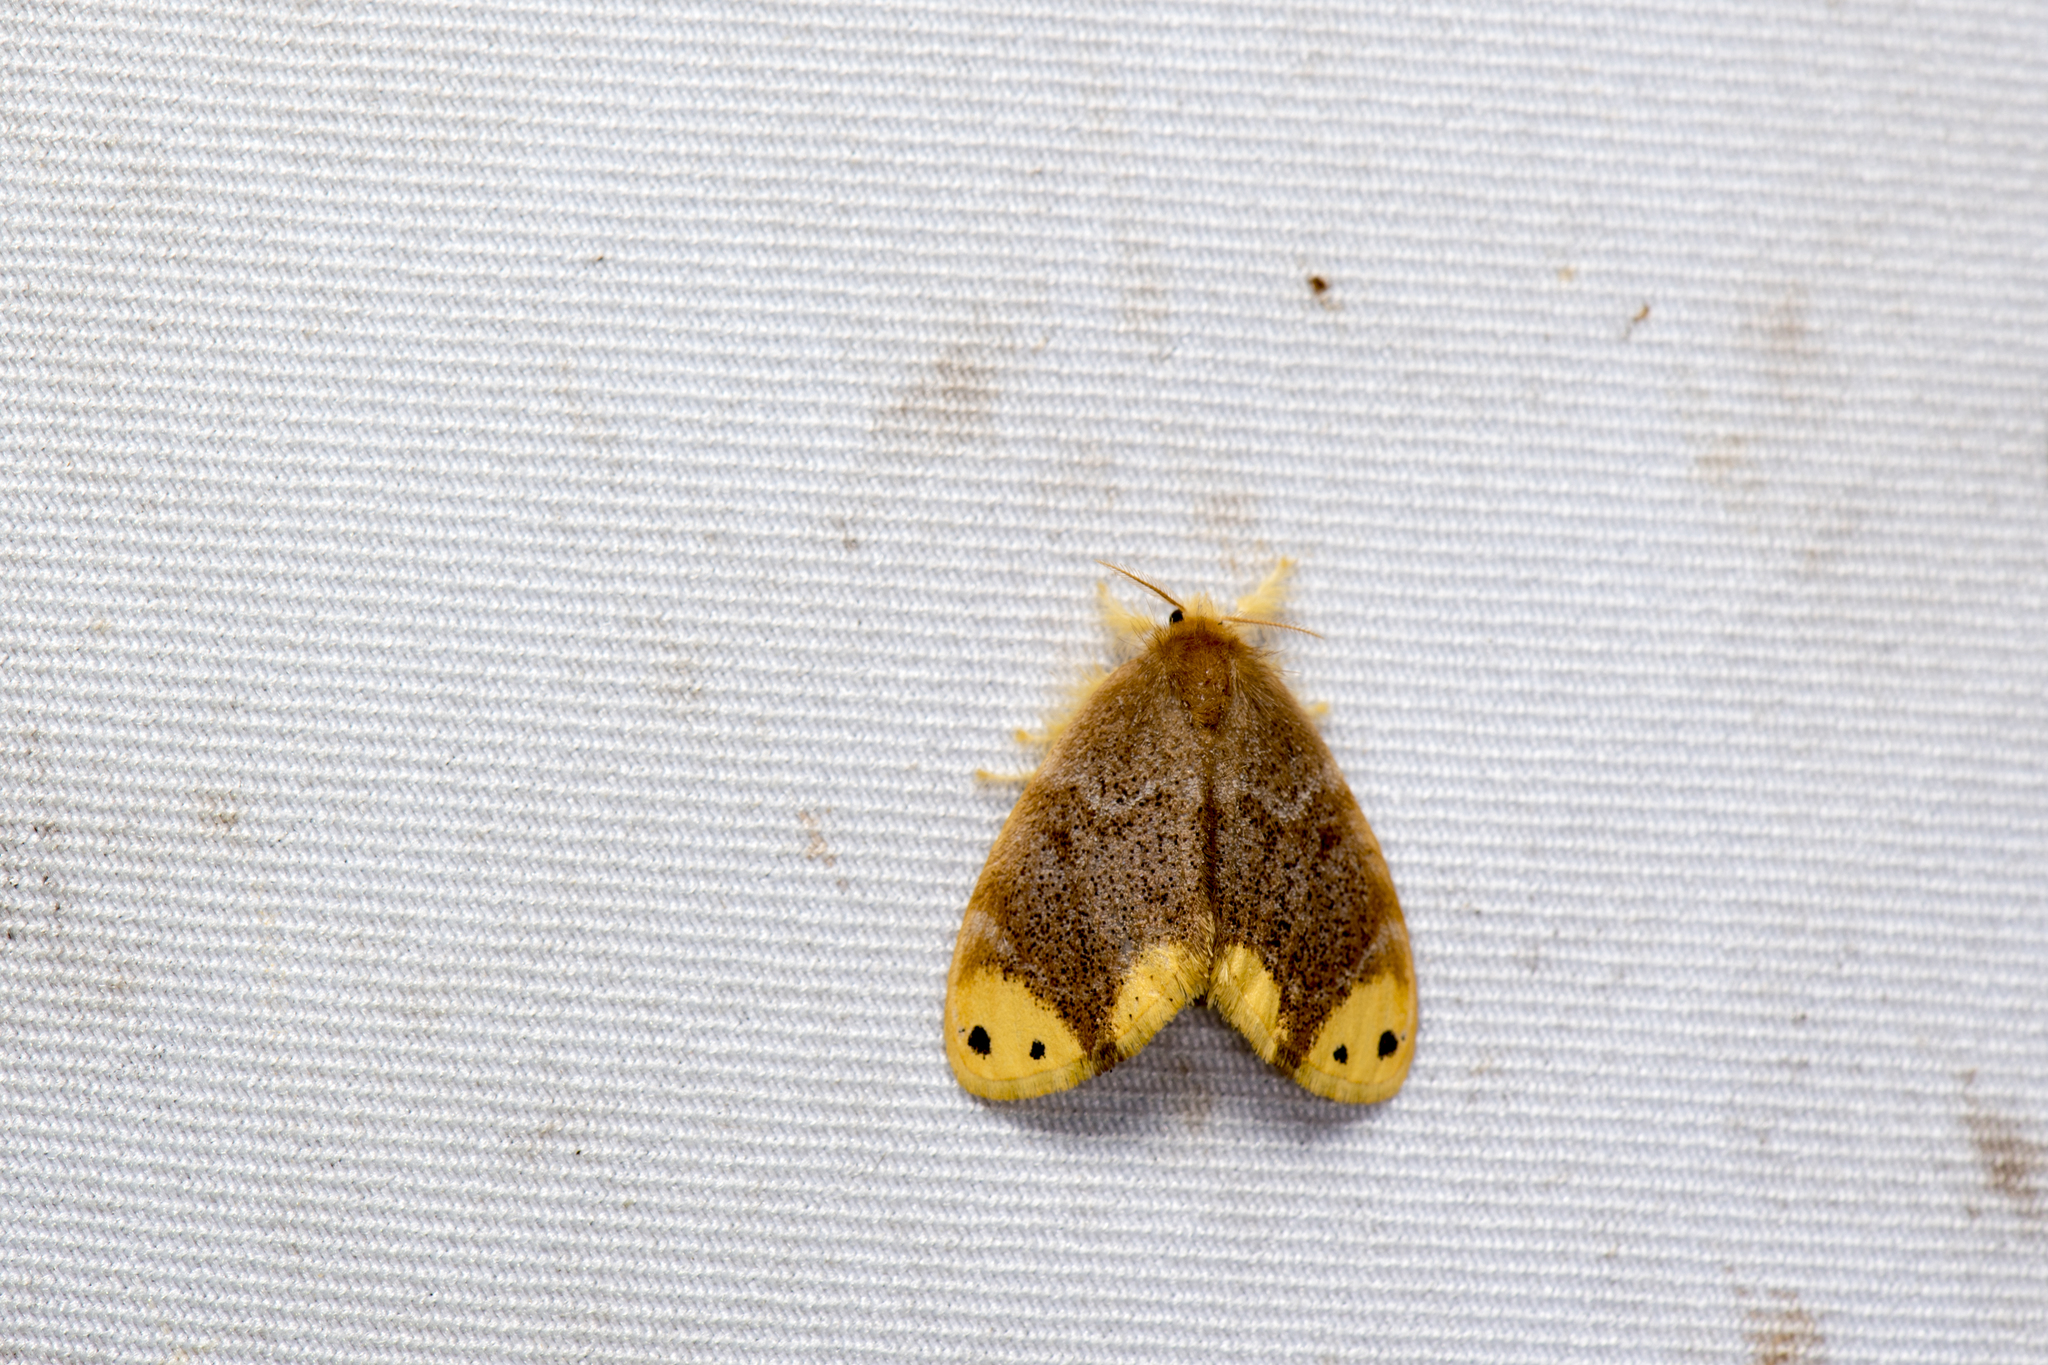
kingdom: Animalia
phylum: Arthropoda
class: Insecta
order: Lepidoptera
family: Erebidae
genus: Arna
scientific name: Arna bipunctapex
